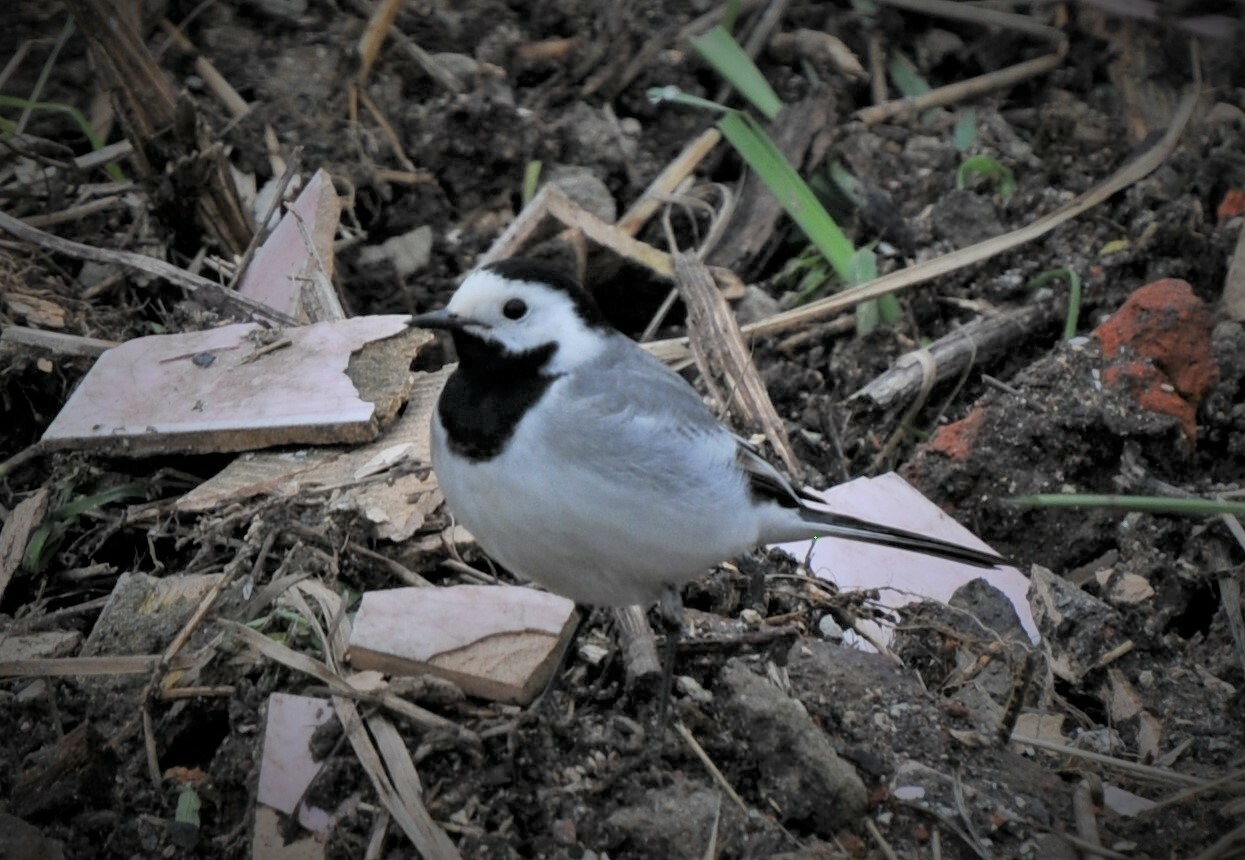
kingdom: Animalia
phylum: Chordata
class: Aves
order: Passeriformes
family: Motacillidae
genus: Motacilla
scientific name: Motacilla alba
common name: White wagtail
